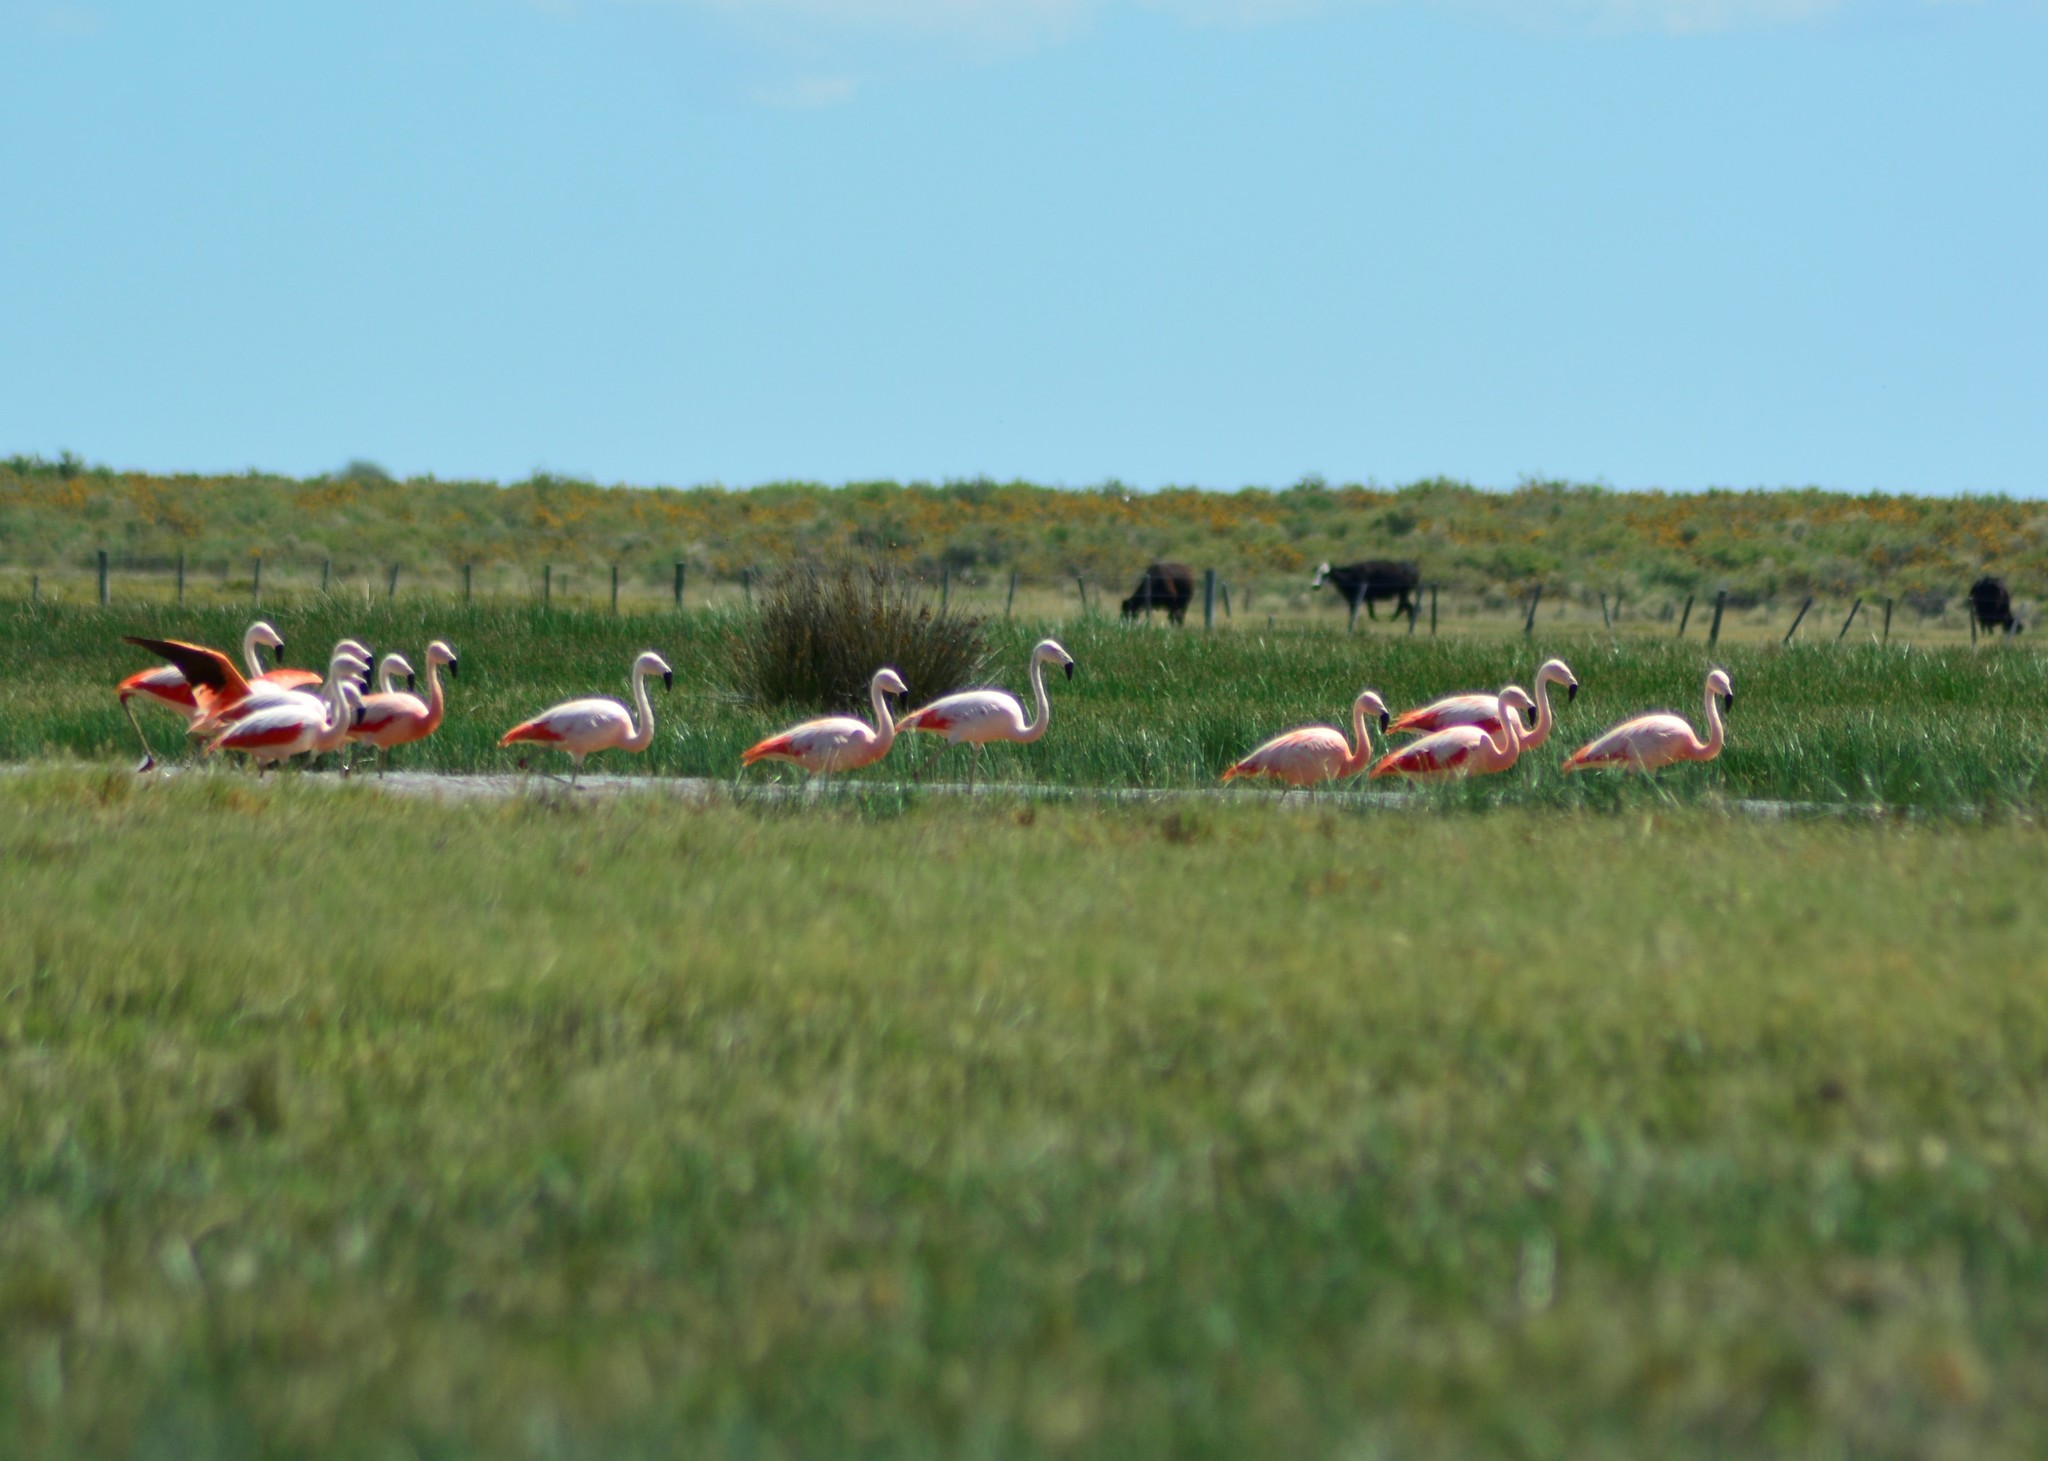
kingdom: Animalia
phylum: Chordata
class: Aves
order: Phoenicopteriformes
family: Phoenicopteridae
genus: Phoenicopterus
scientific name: Phoenicopterus chilensis
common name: Chilean flamingo
